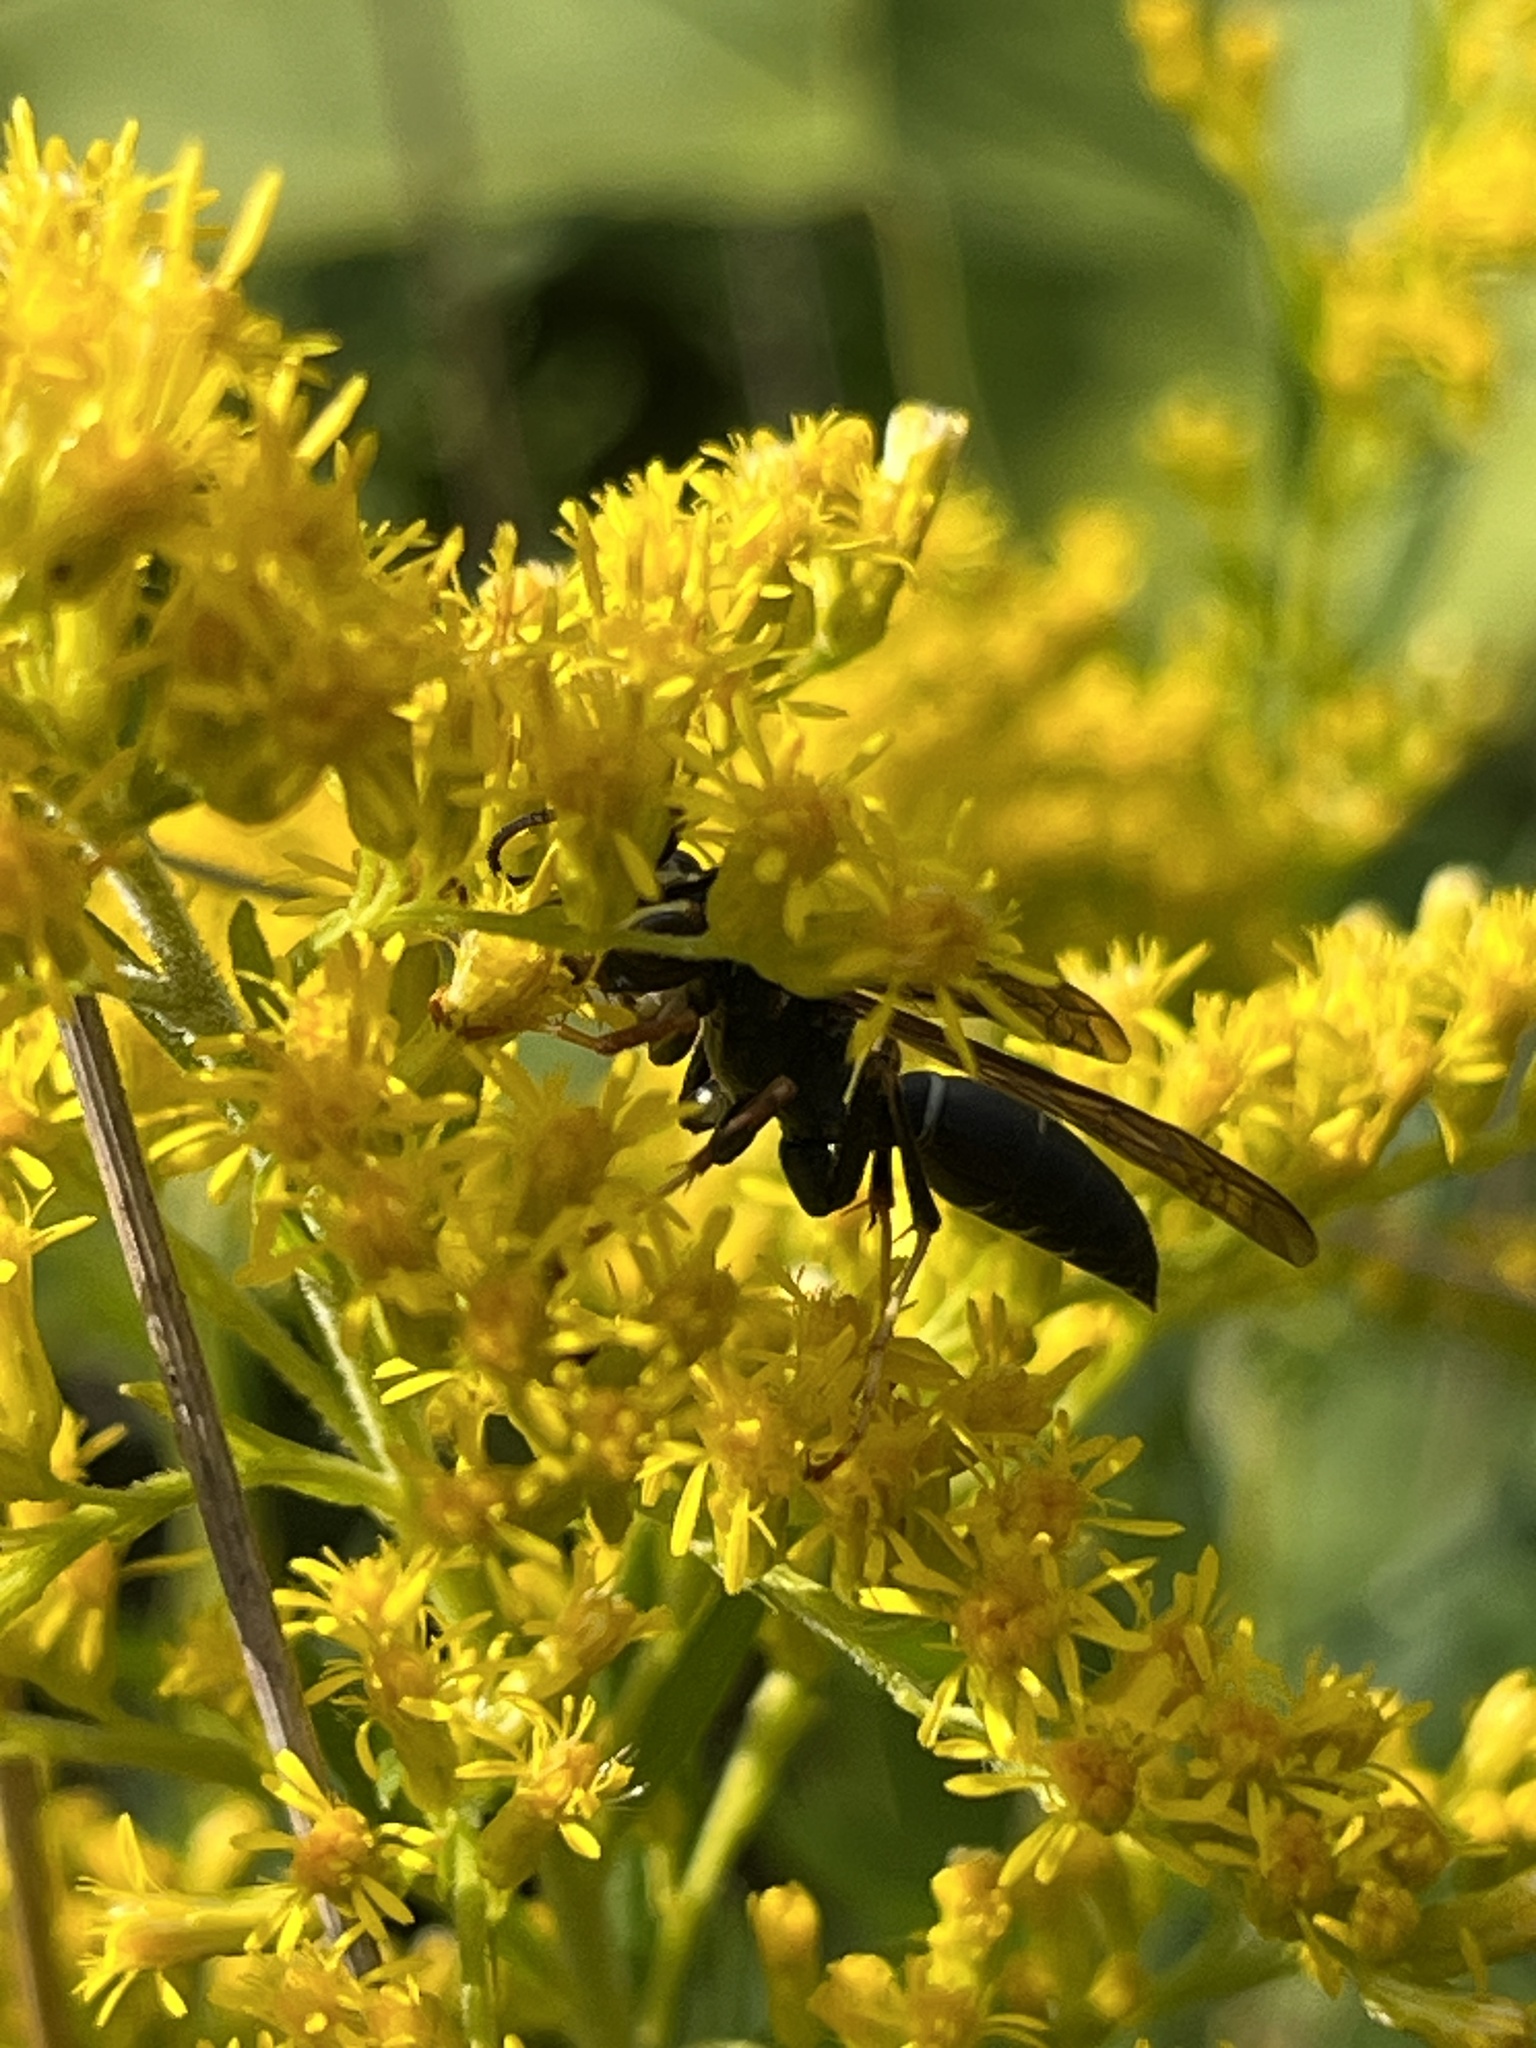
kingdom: Animalia
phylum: Arthropoda
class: Insecta
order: Hymenoptera
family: Eumenidae
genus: Polistes
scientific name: Polistes fuscatus
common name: Dark paper wasp
